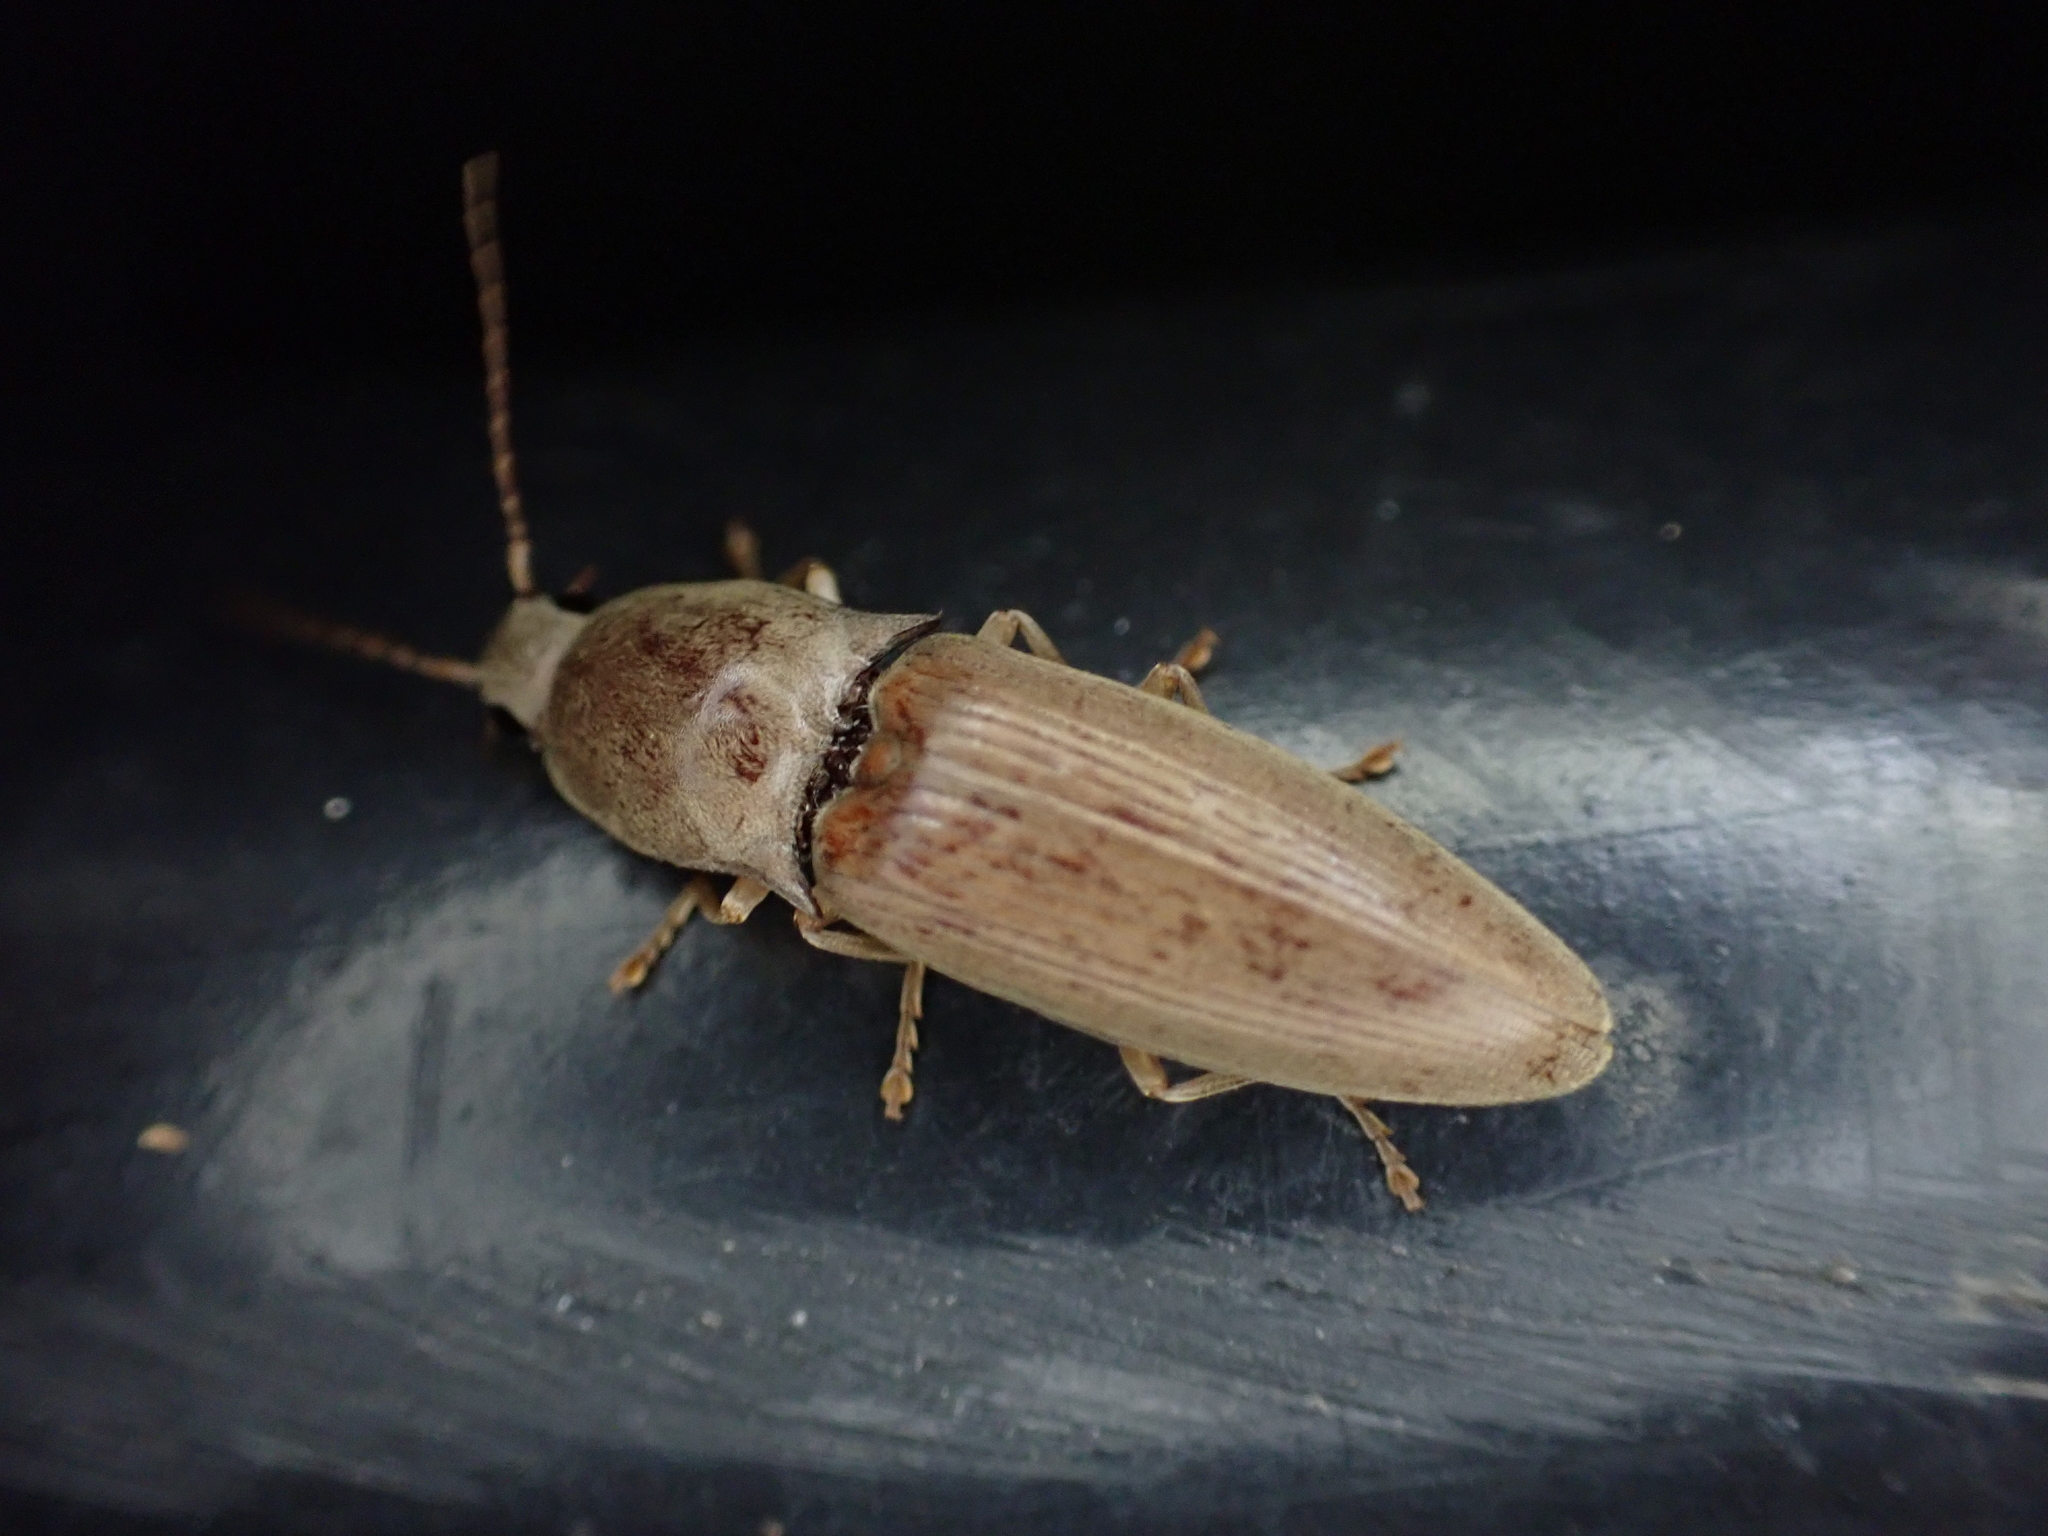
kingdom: Animalia
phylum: Arthropoda
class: Insecta
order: Coleoptera
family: Elateridae
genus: Monocrepidius
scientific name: Monocrepidius lividus
